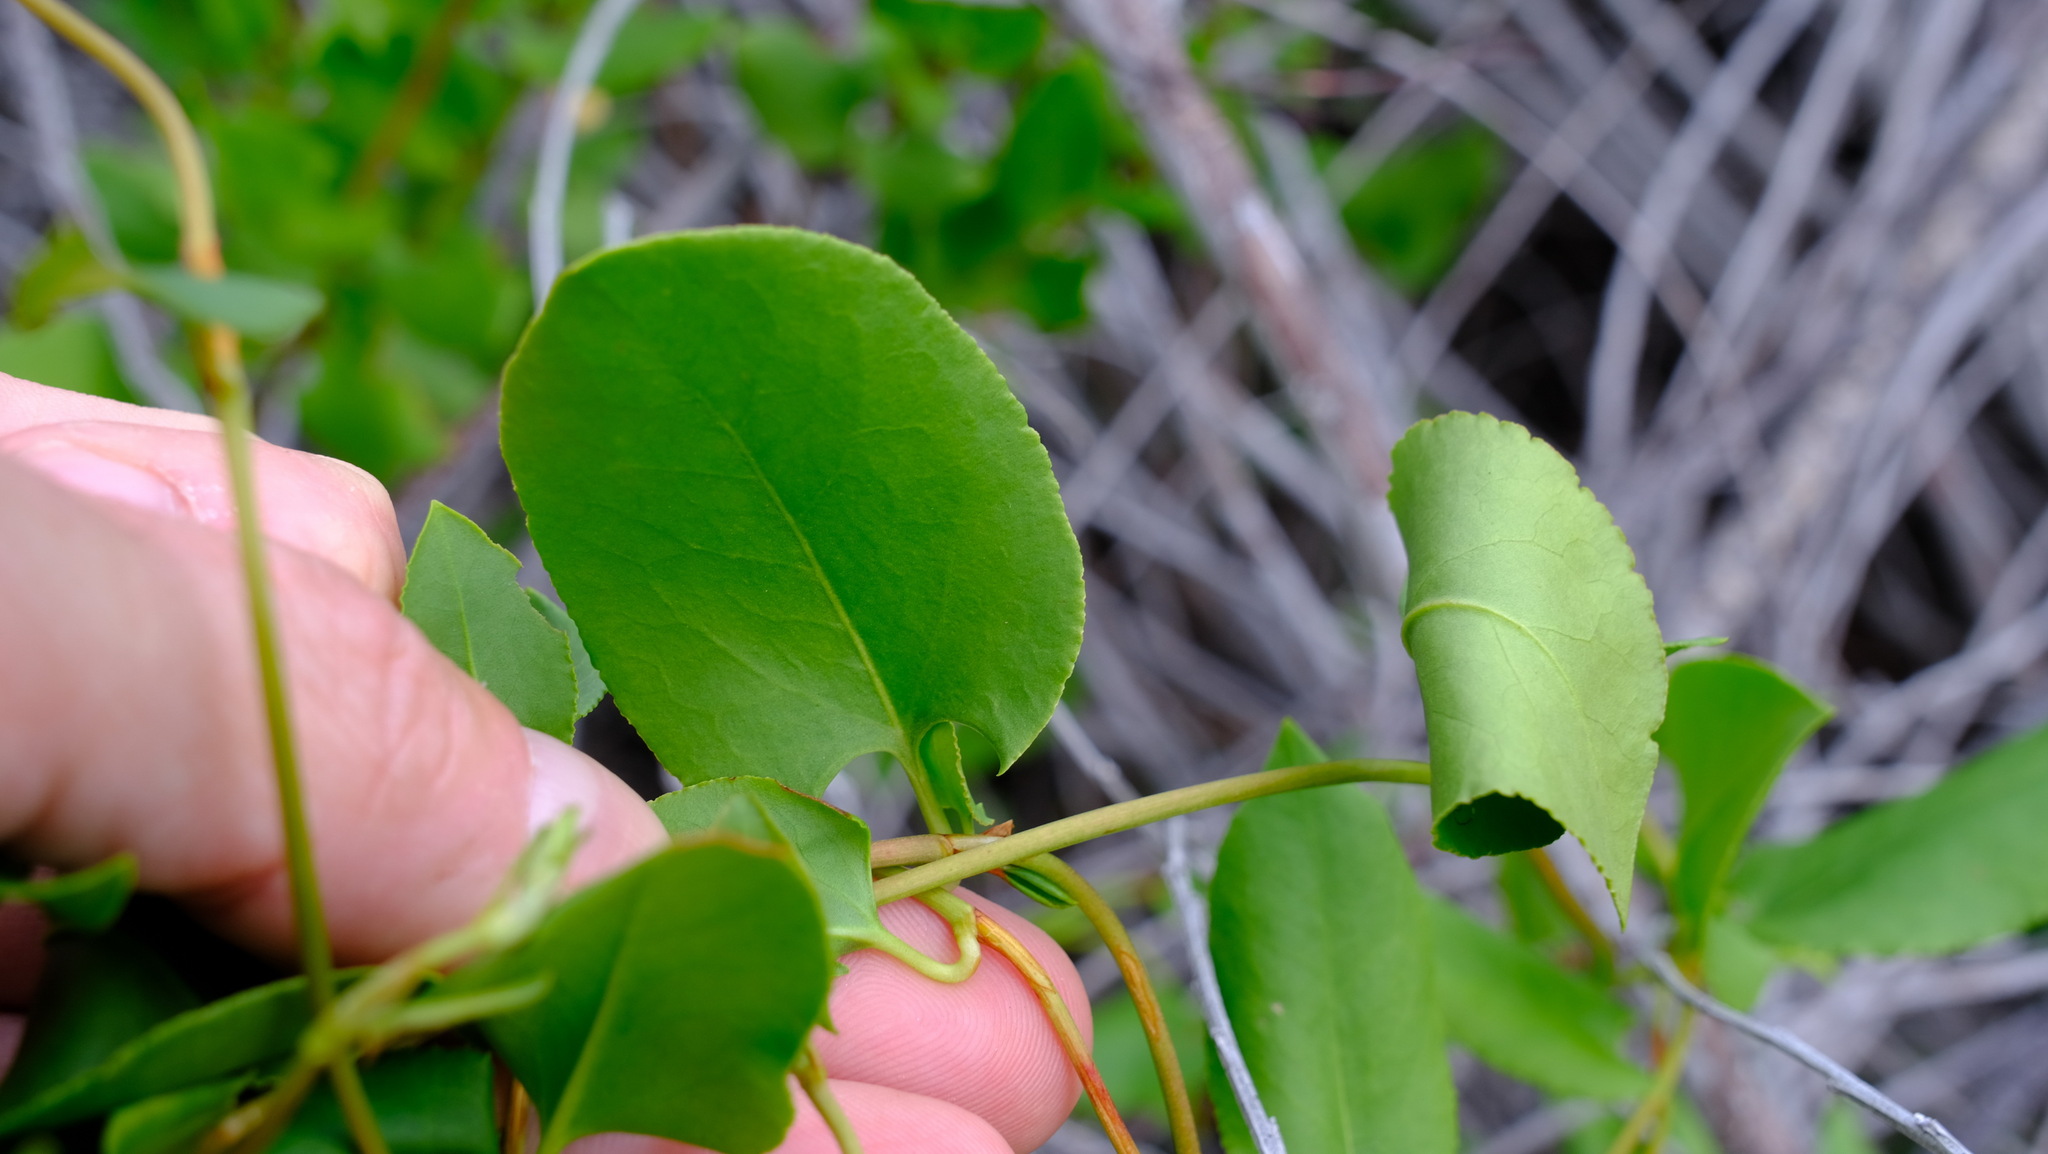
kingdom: Plantae
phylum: Tracheophyta
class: Magnoliopsida
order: Caryophyllales
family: Polygonaceae
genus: Muehlenbeckia
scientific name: Muehlenbeckia adpressa
